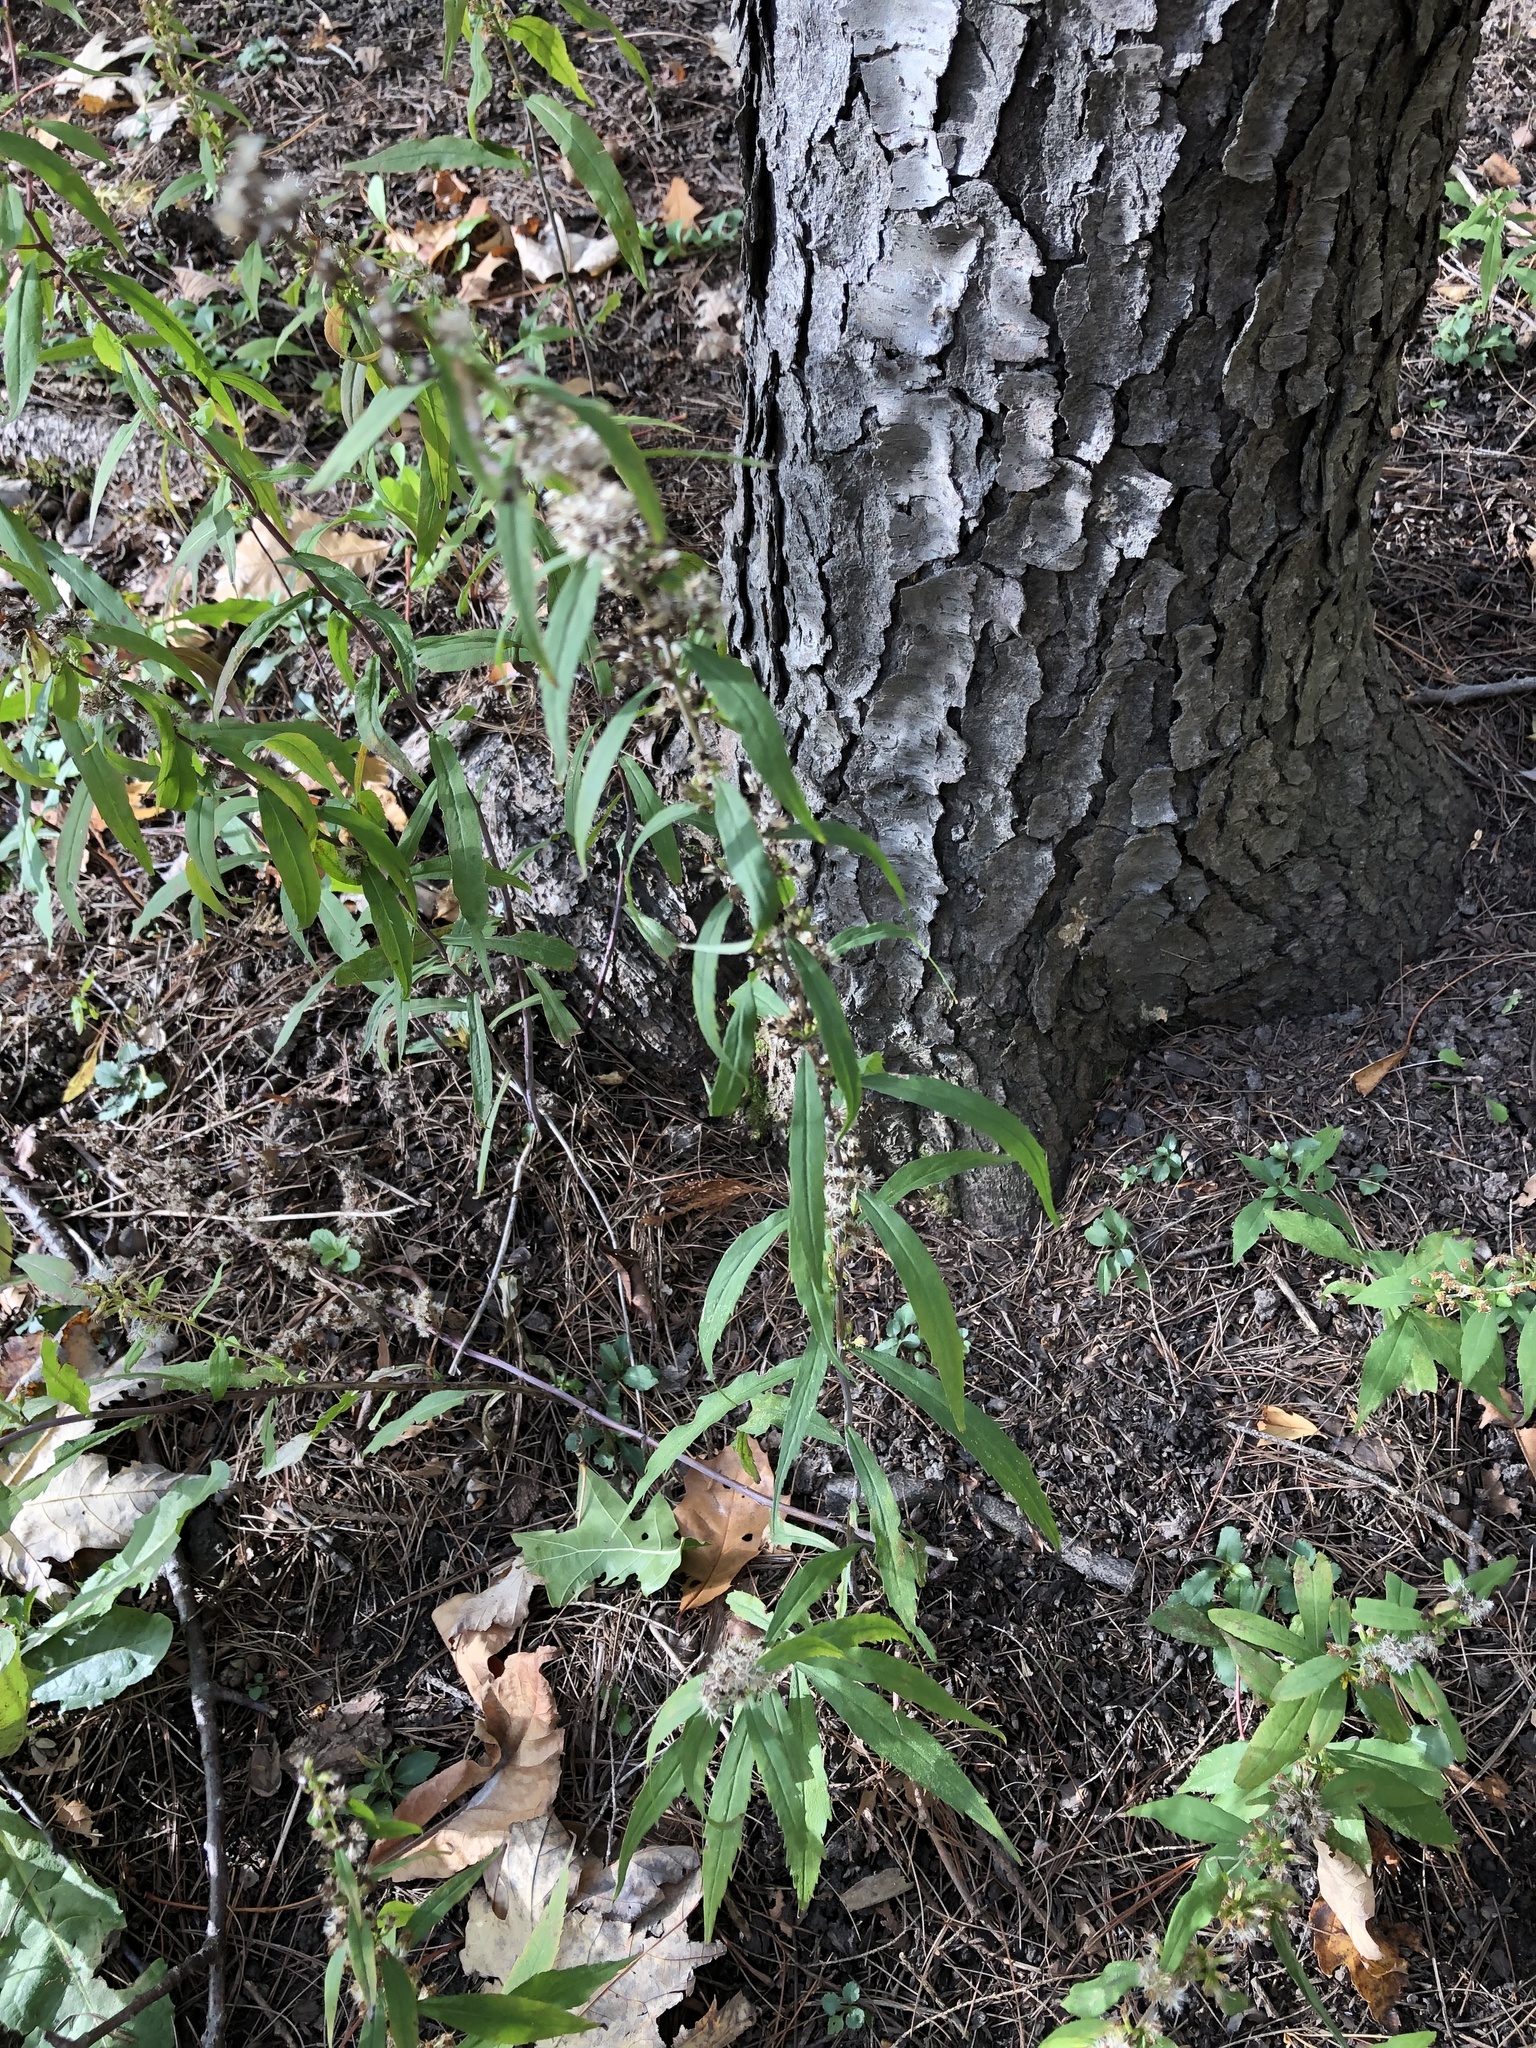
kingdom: Plantae
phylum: Tracheophyta
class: Magnoliopsida
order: Asterales
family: Asteraceae
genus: Solidago
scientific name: Solidago caesia
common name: Woodland goldenrod
